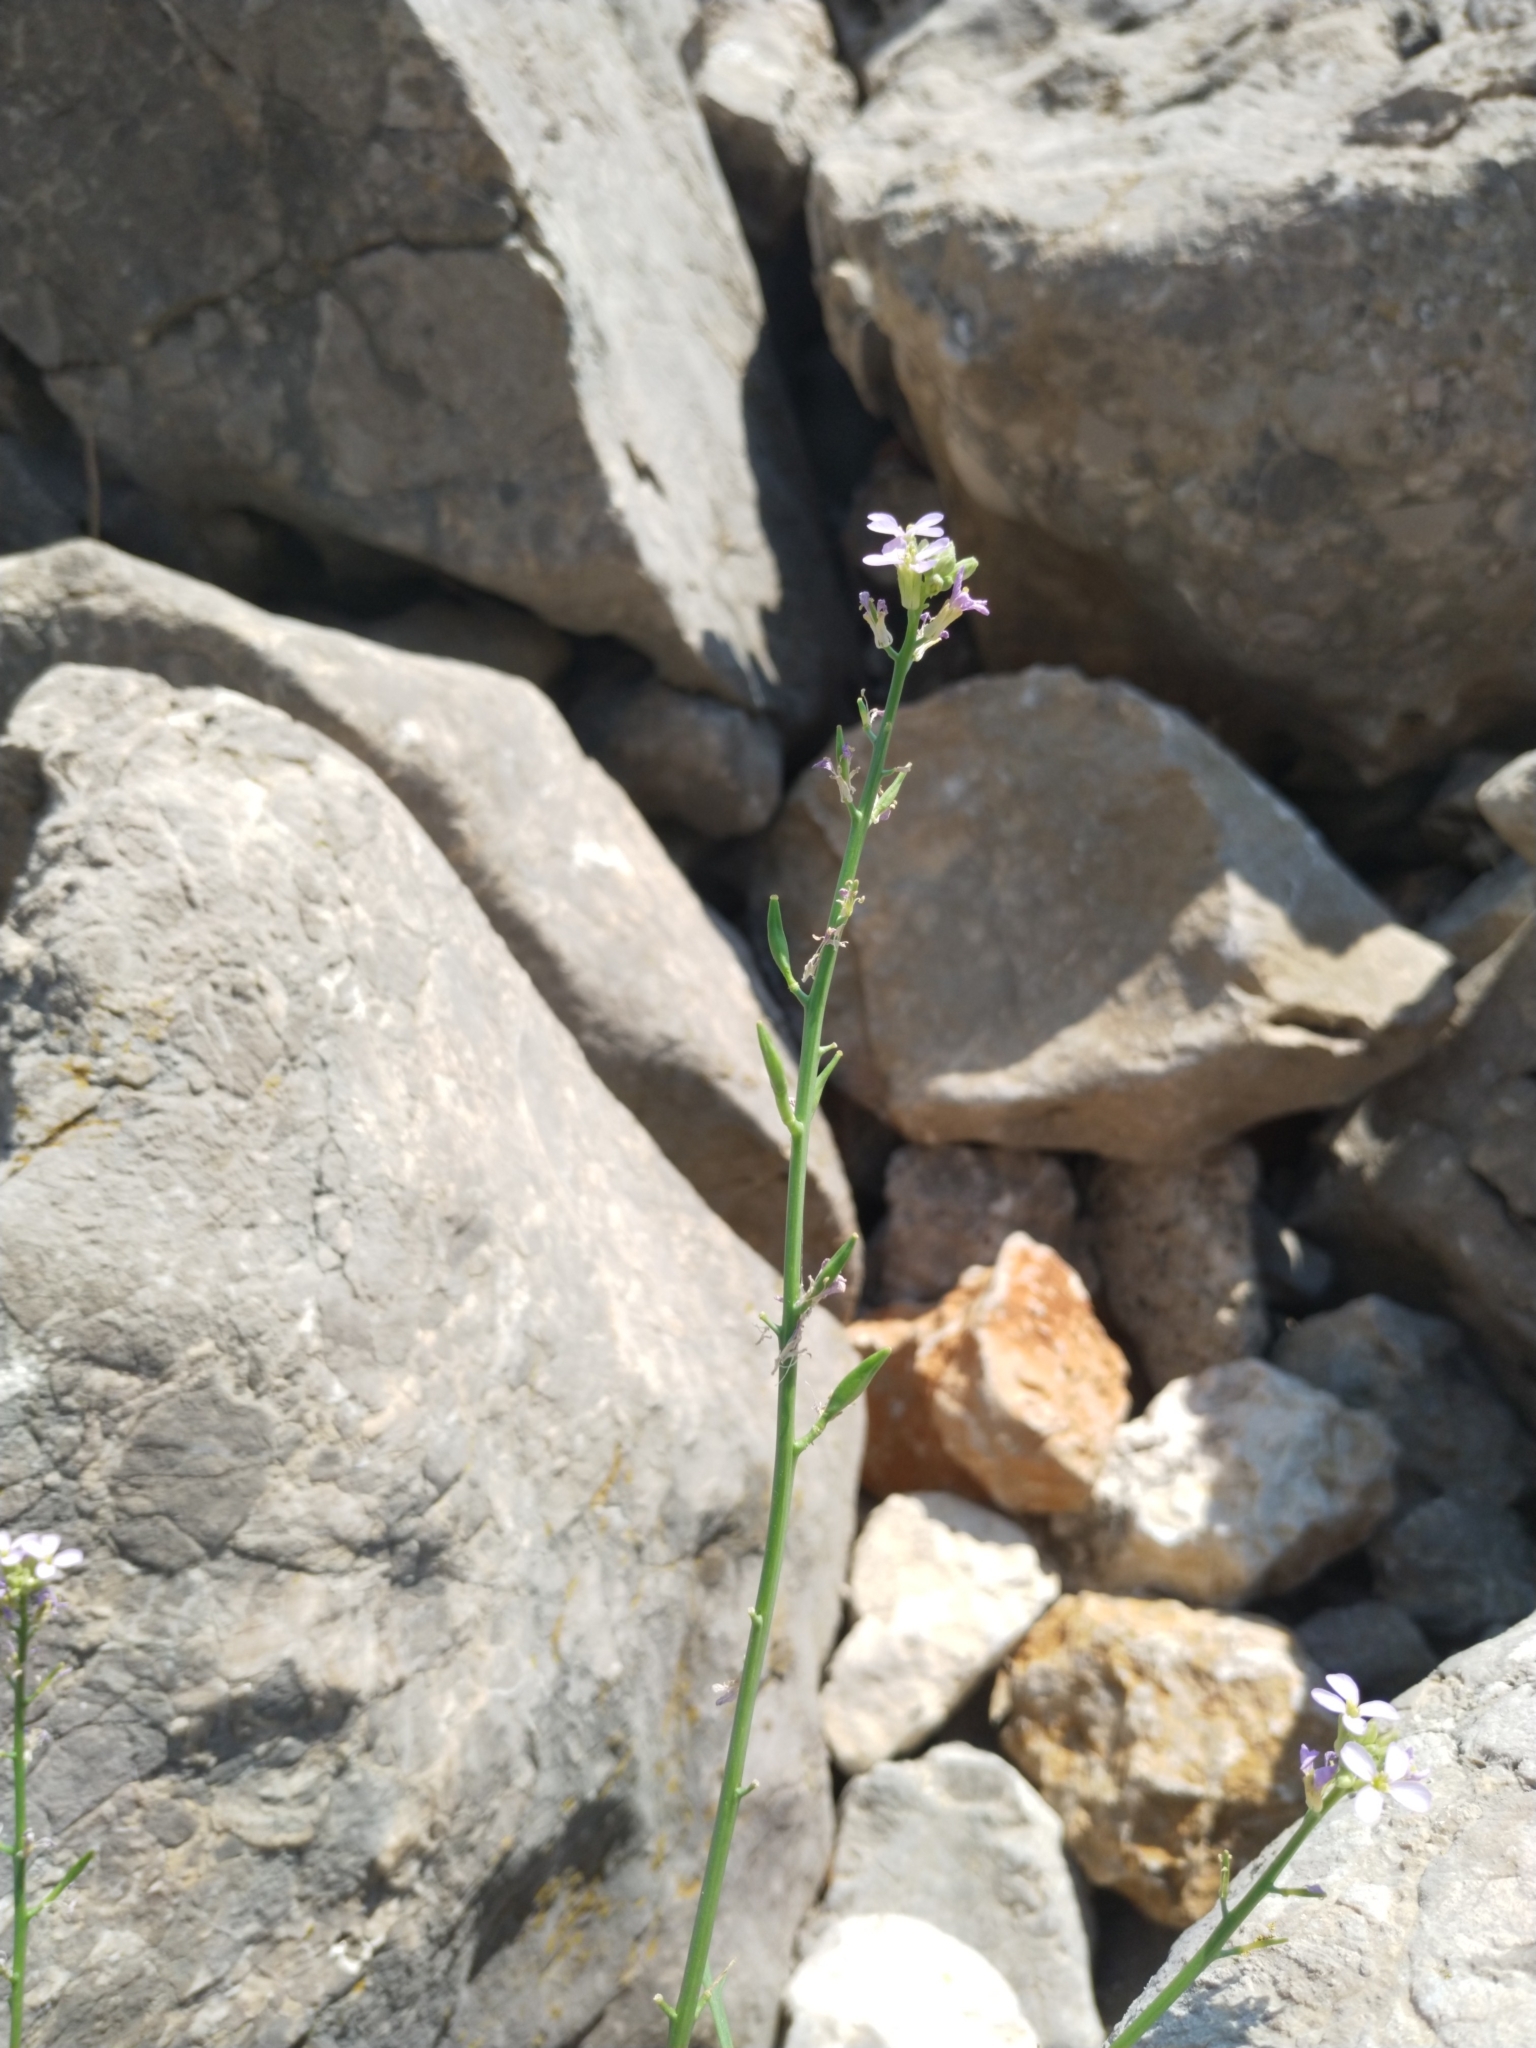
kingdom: Plantae
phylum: Tracheophyta
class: Magnoliopsida
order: Brassicales
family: Brassicaceae
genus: Cakile
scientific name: Cakile maritima
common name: Sea rocket
